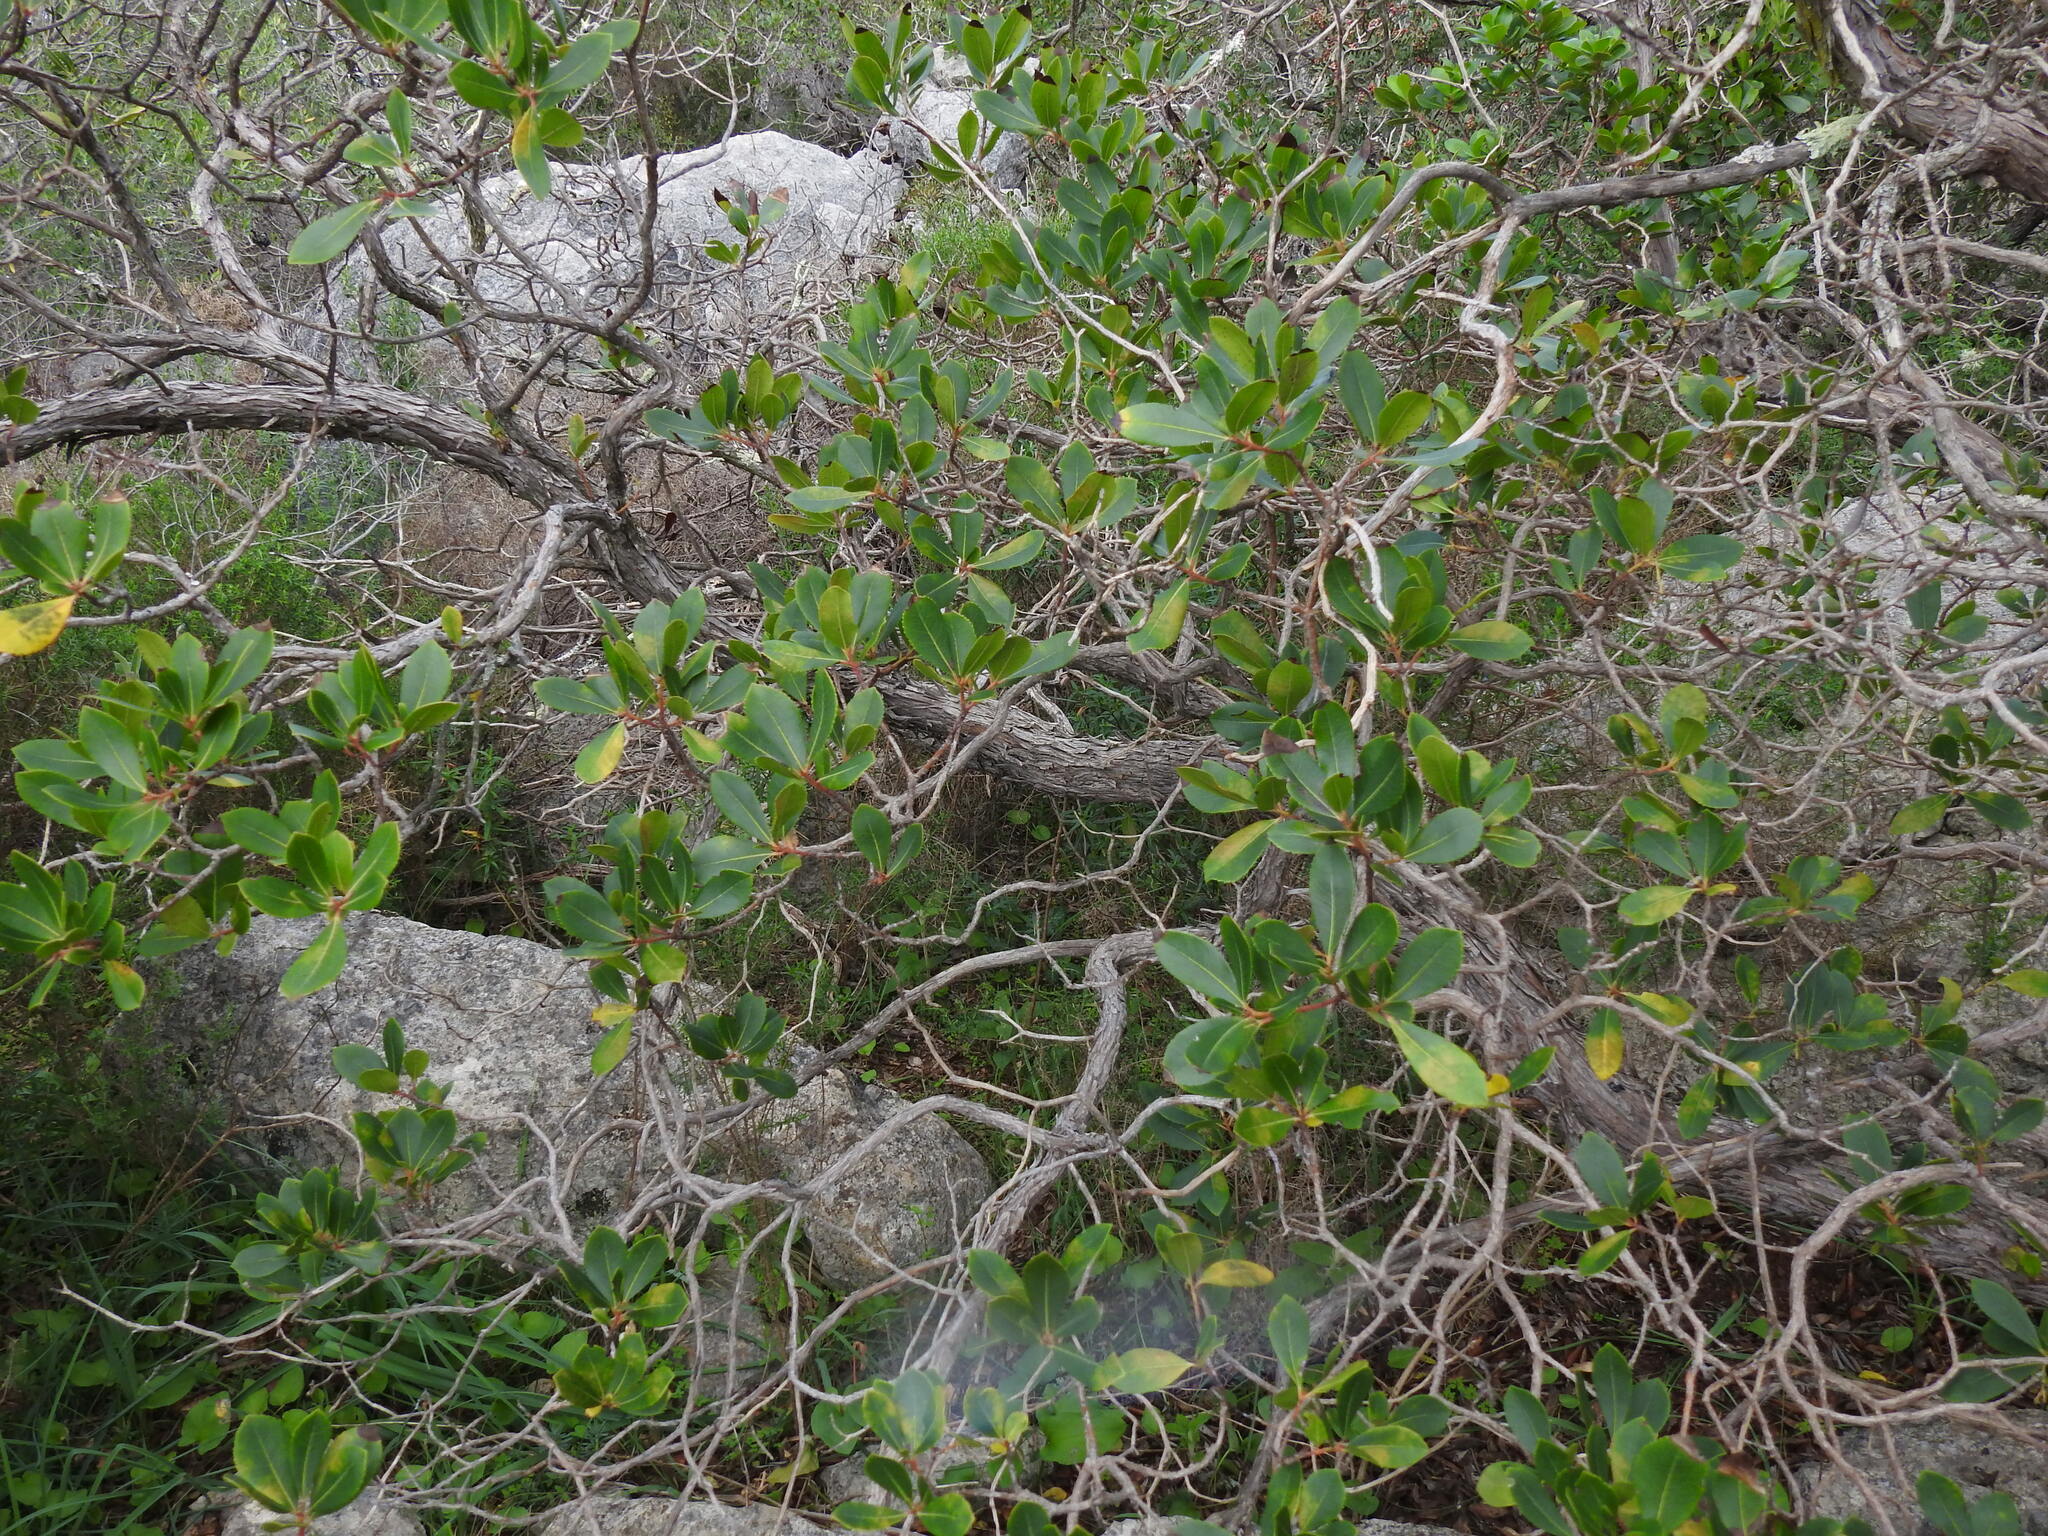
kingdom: Plantae
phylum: Tracheophyta
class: Magnoliopsida
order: Ericales
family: Ericaceae
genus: Arbutus
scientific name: Arbutus unedo
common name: Strawberry-tree
